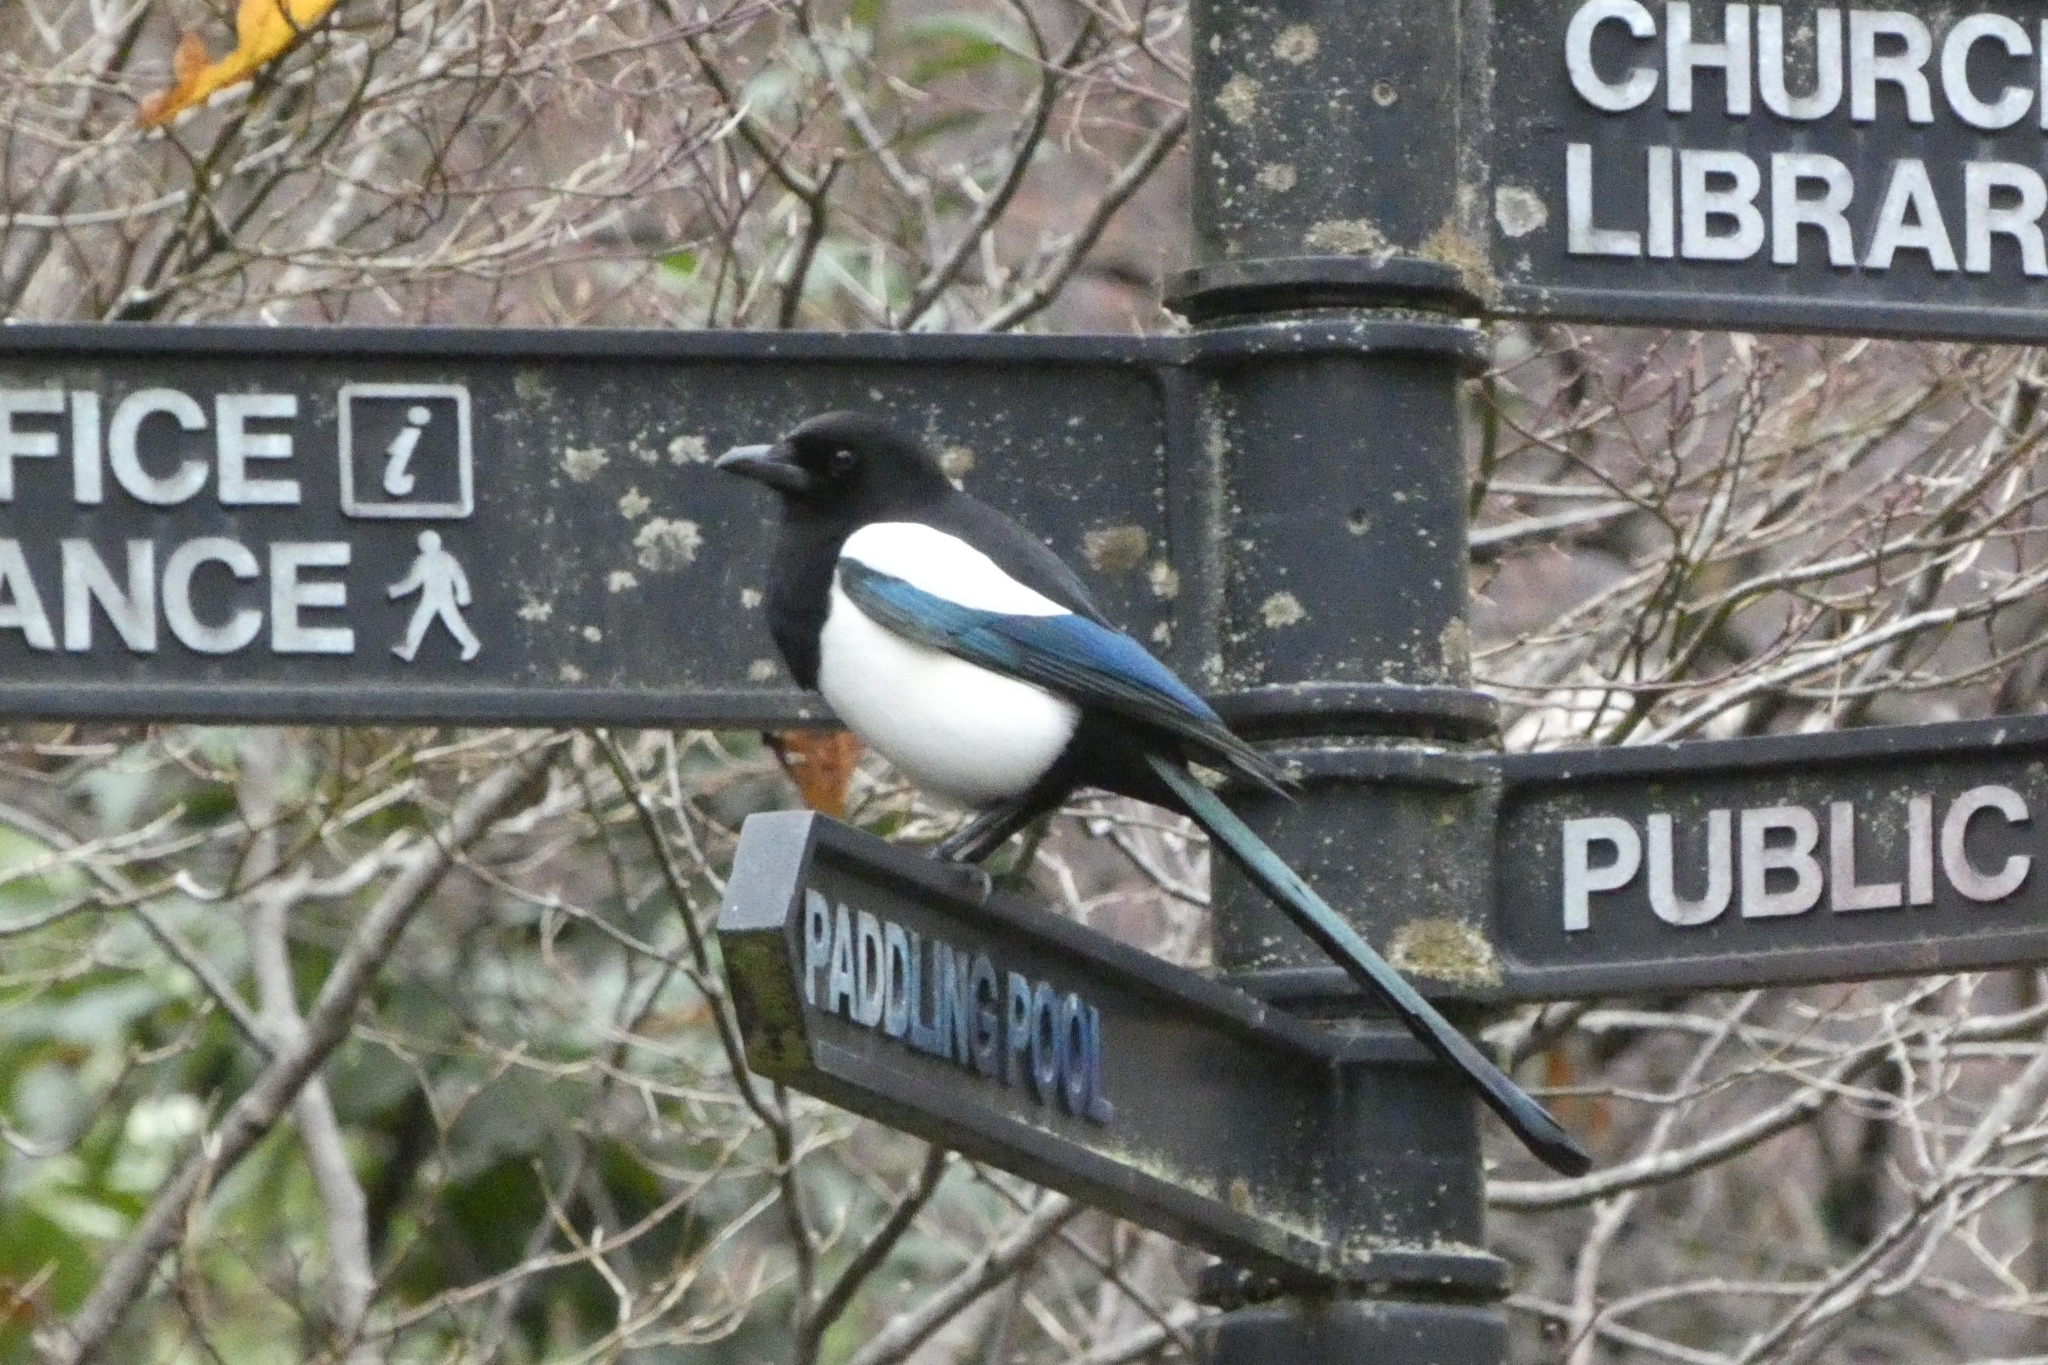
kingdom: Animalia
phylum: Chordata
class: Aves
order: Passeriformes
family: Corvidae
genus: Pica
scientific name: Pica pica
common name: Eurasian magpie
